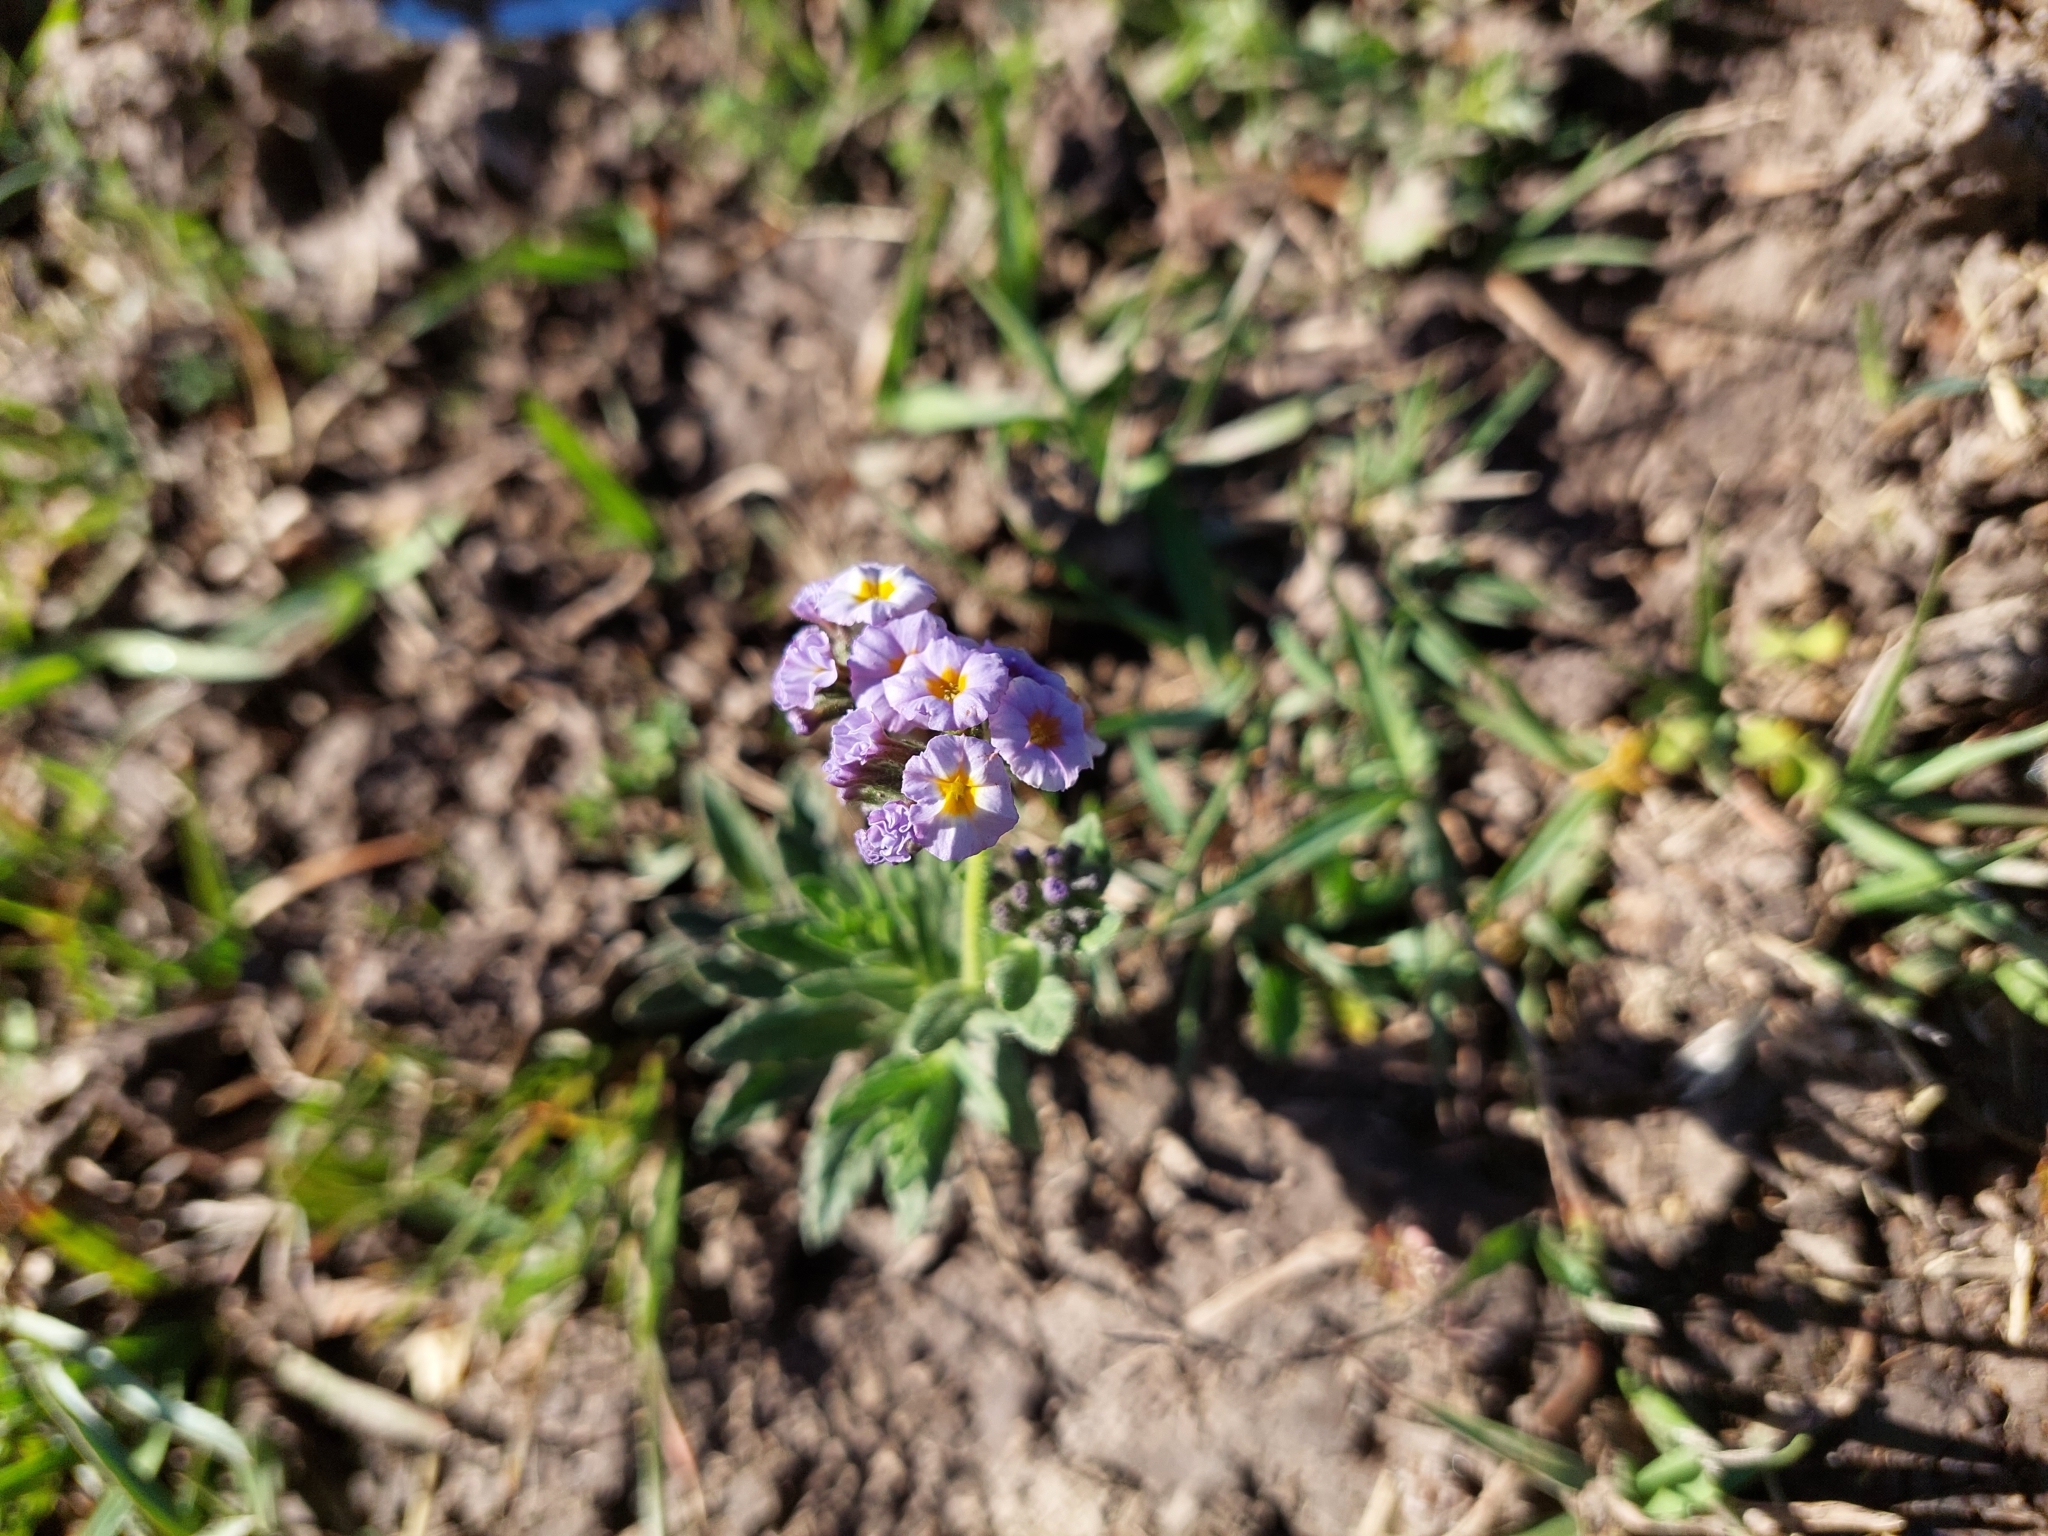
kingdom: Plantae
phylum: Tracheophyta
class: Magnoliopsida
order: Boraginales
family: Heliotropiaceae
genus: Heliotropium
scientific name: Heliotropium amplexicaule
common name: Clasping heliotrope
